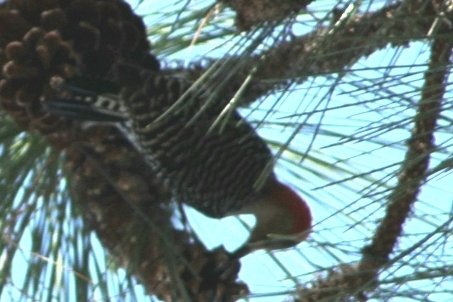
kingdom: Animalia
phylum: Chordata
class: Aves
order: Piciformes
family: Picidae
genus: Melanerpes
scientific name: Melanerpes carolinus
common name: Red-bellied woodpecker
